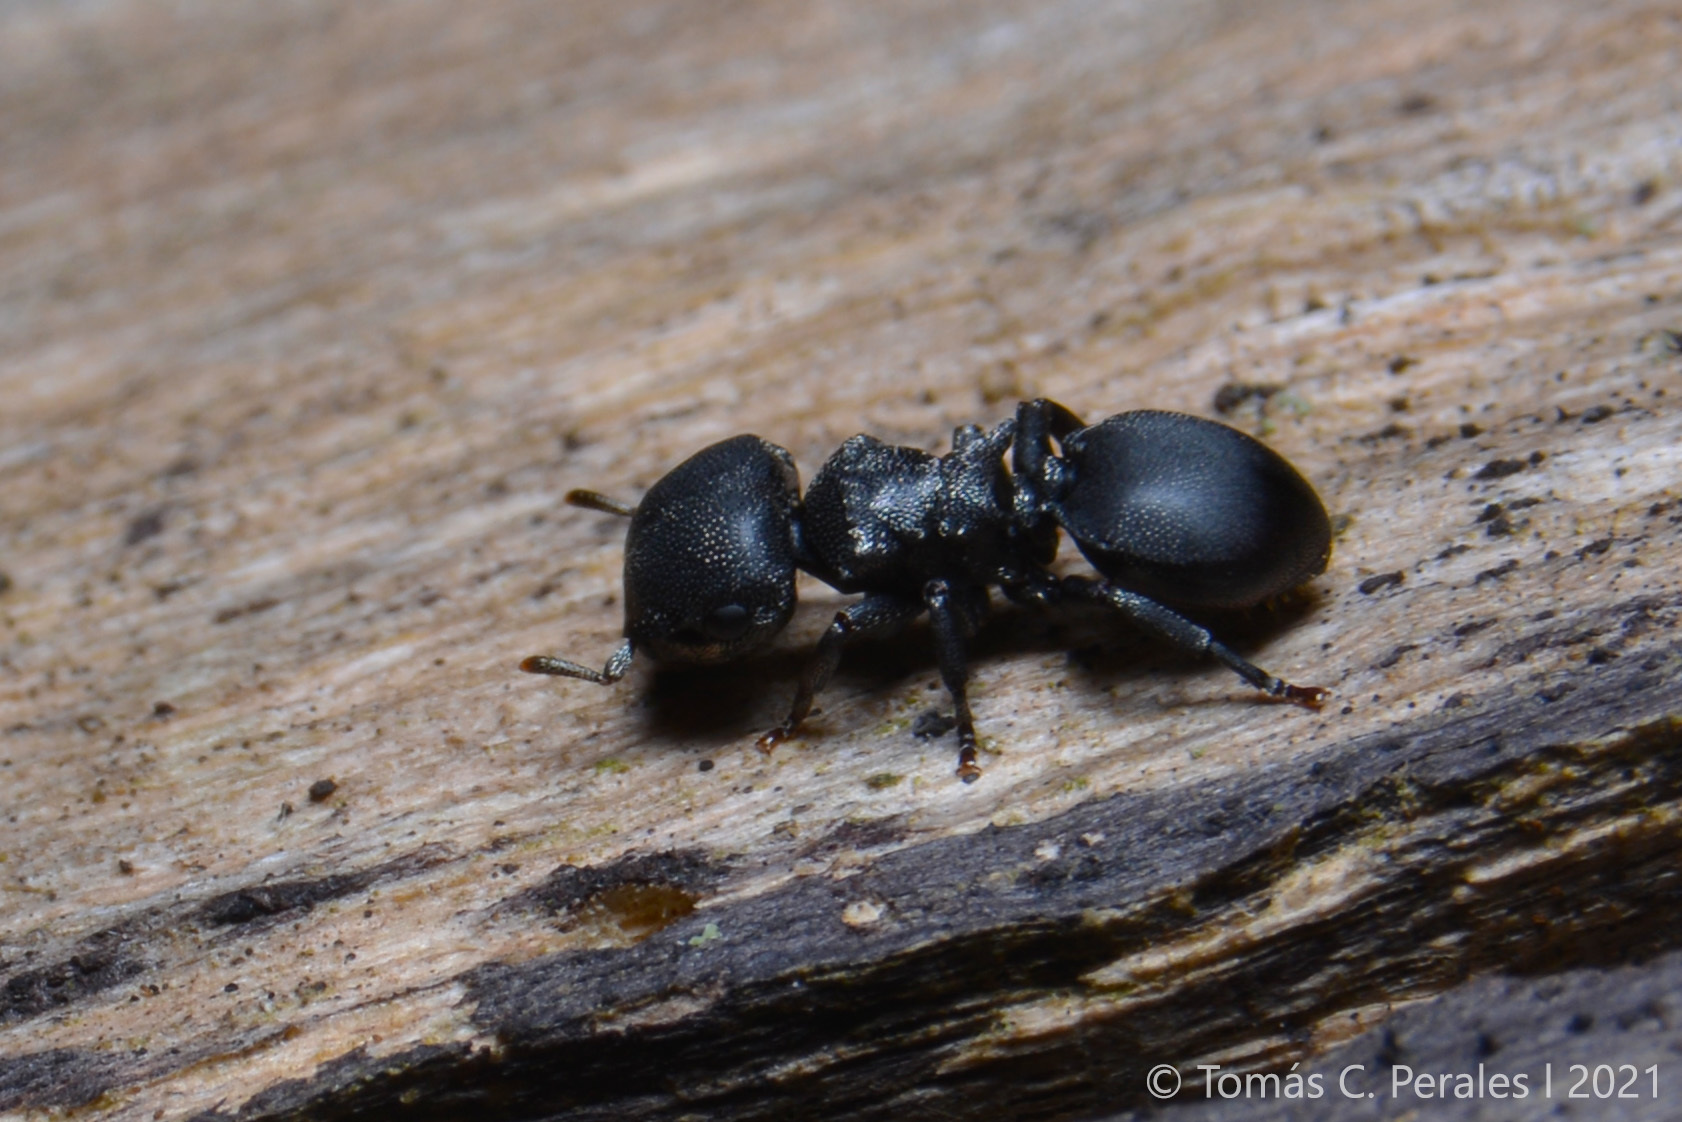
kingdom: Animalia
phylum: Arthropoda
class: Insecta
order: Hymenoptera
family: Formicidae
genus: Cephalotes
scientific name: Cephalotes pusillus
